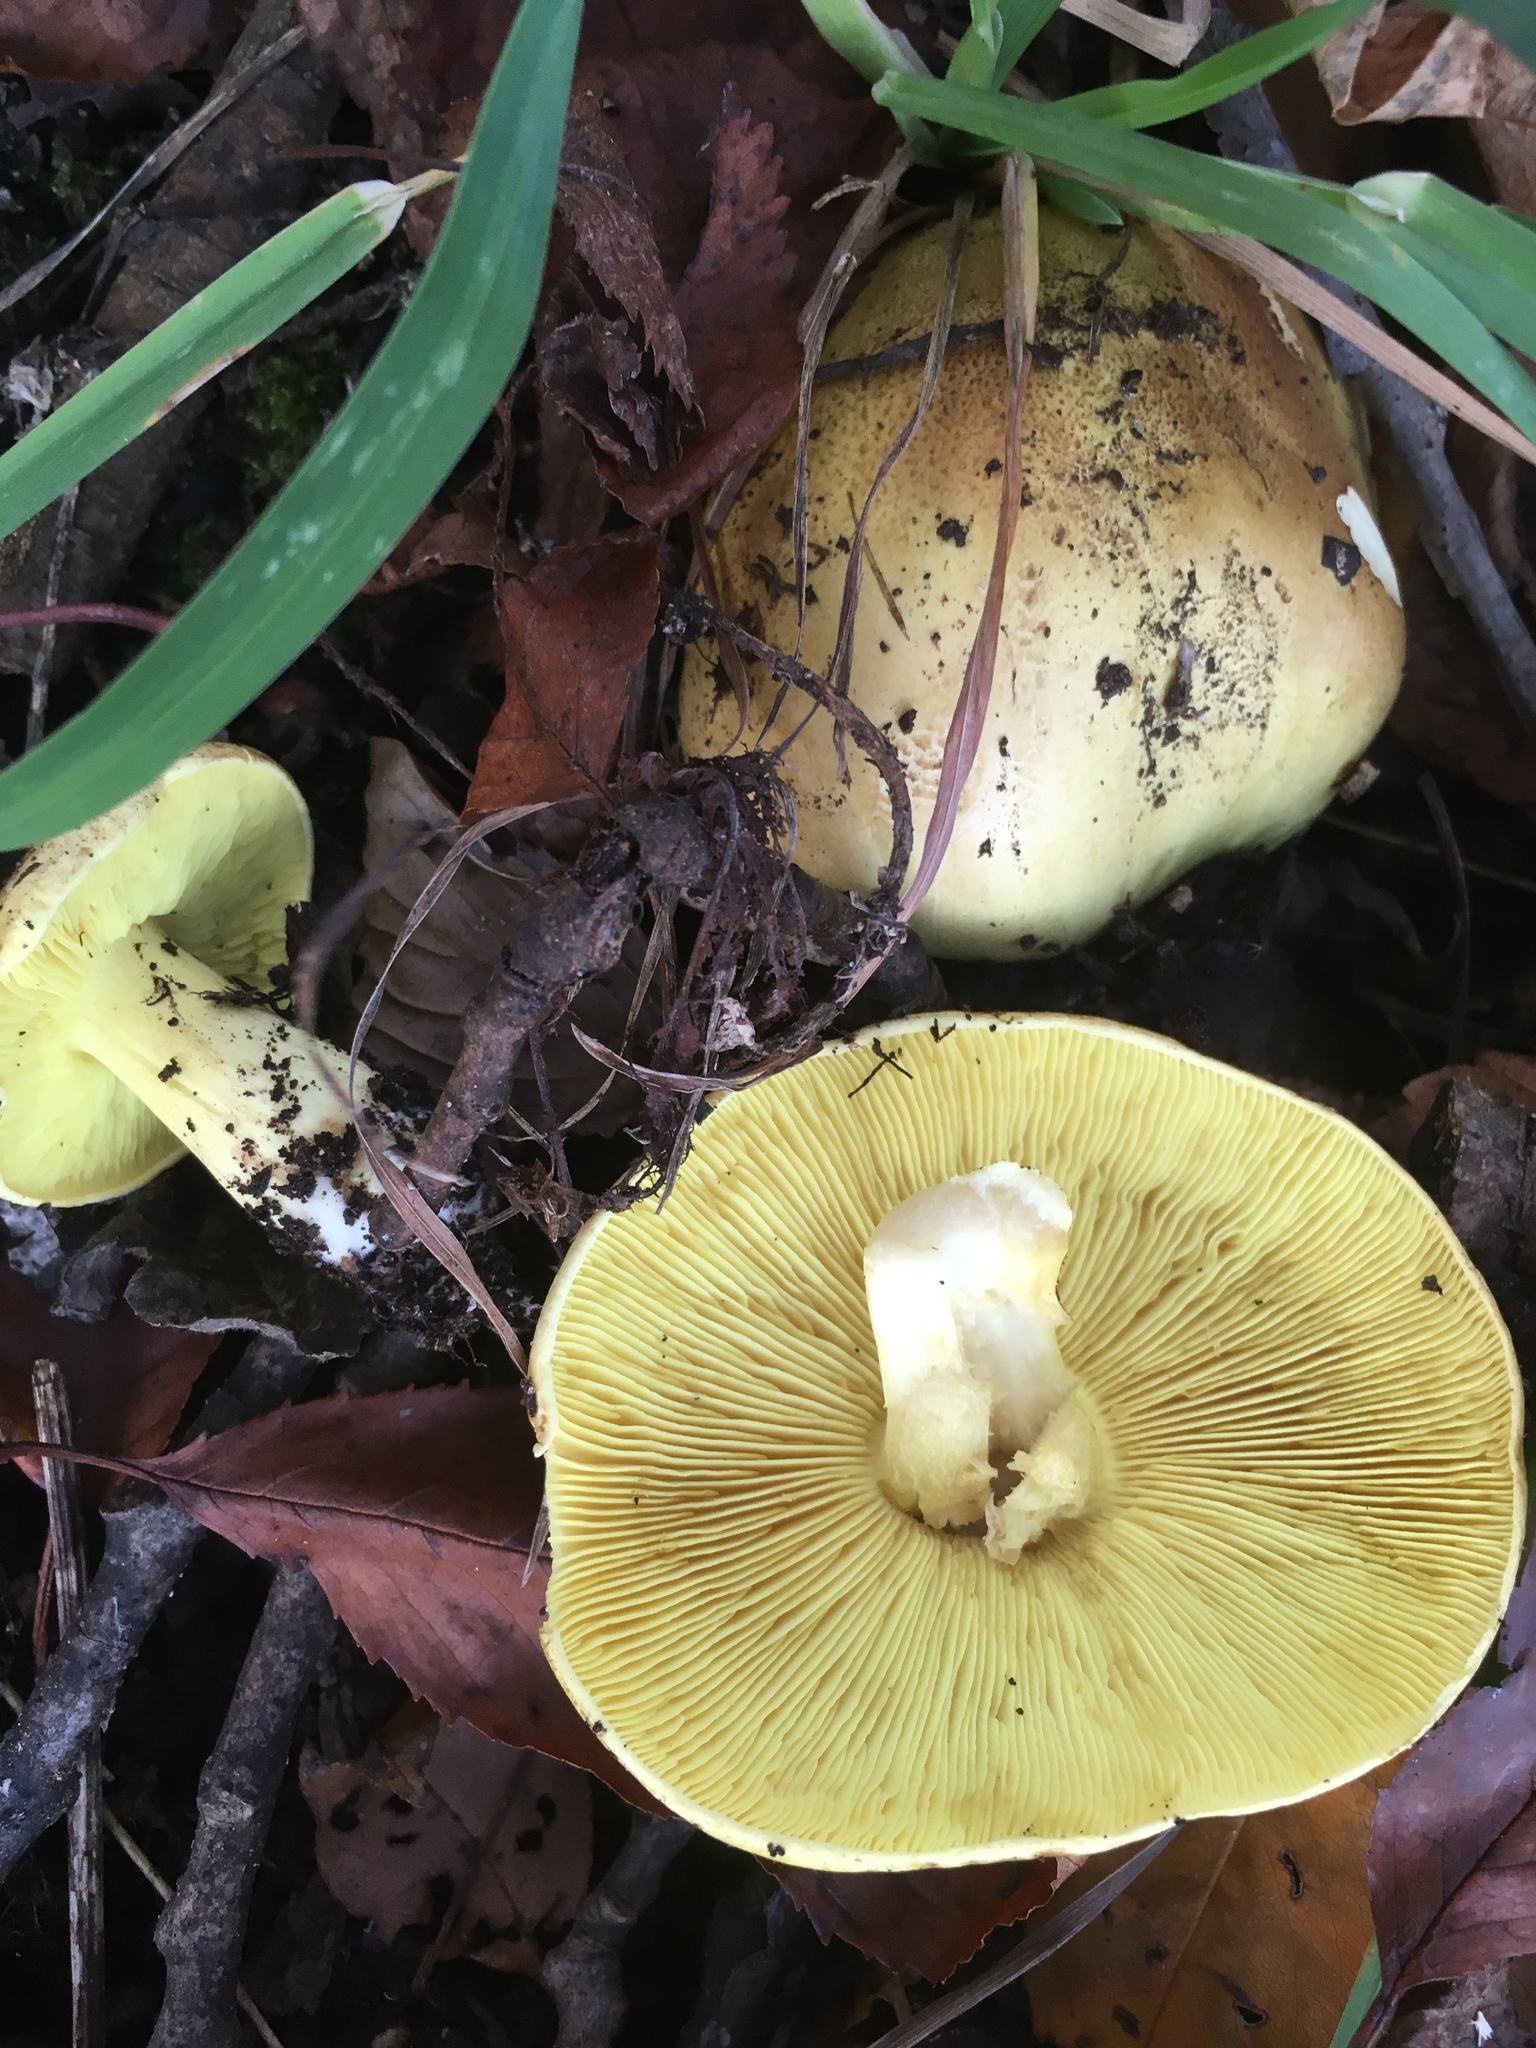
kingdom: Fungi
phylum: Basidiomycota
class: Agaricomycetes
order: Agaricales
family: Tricholomataceae
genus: Tricholoma
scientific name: Tricholoma equestre
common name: Yellow knight
